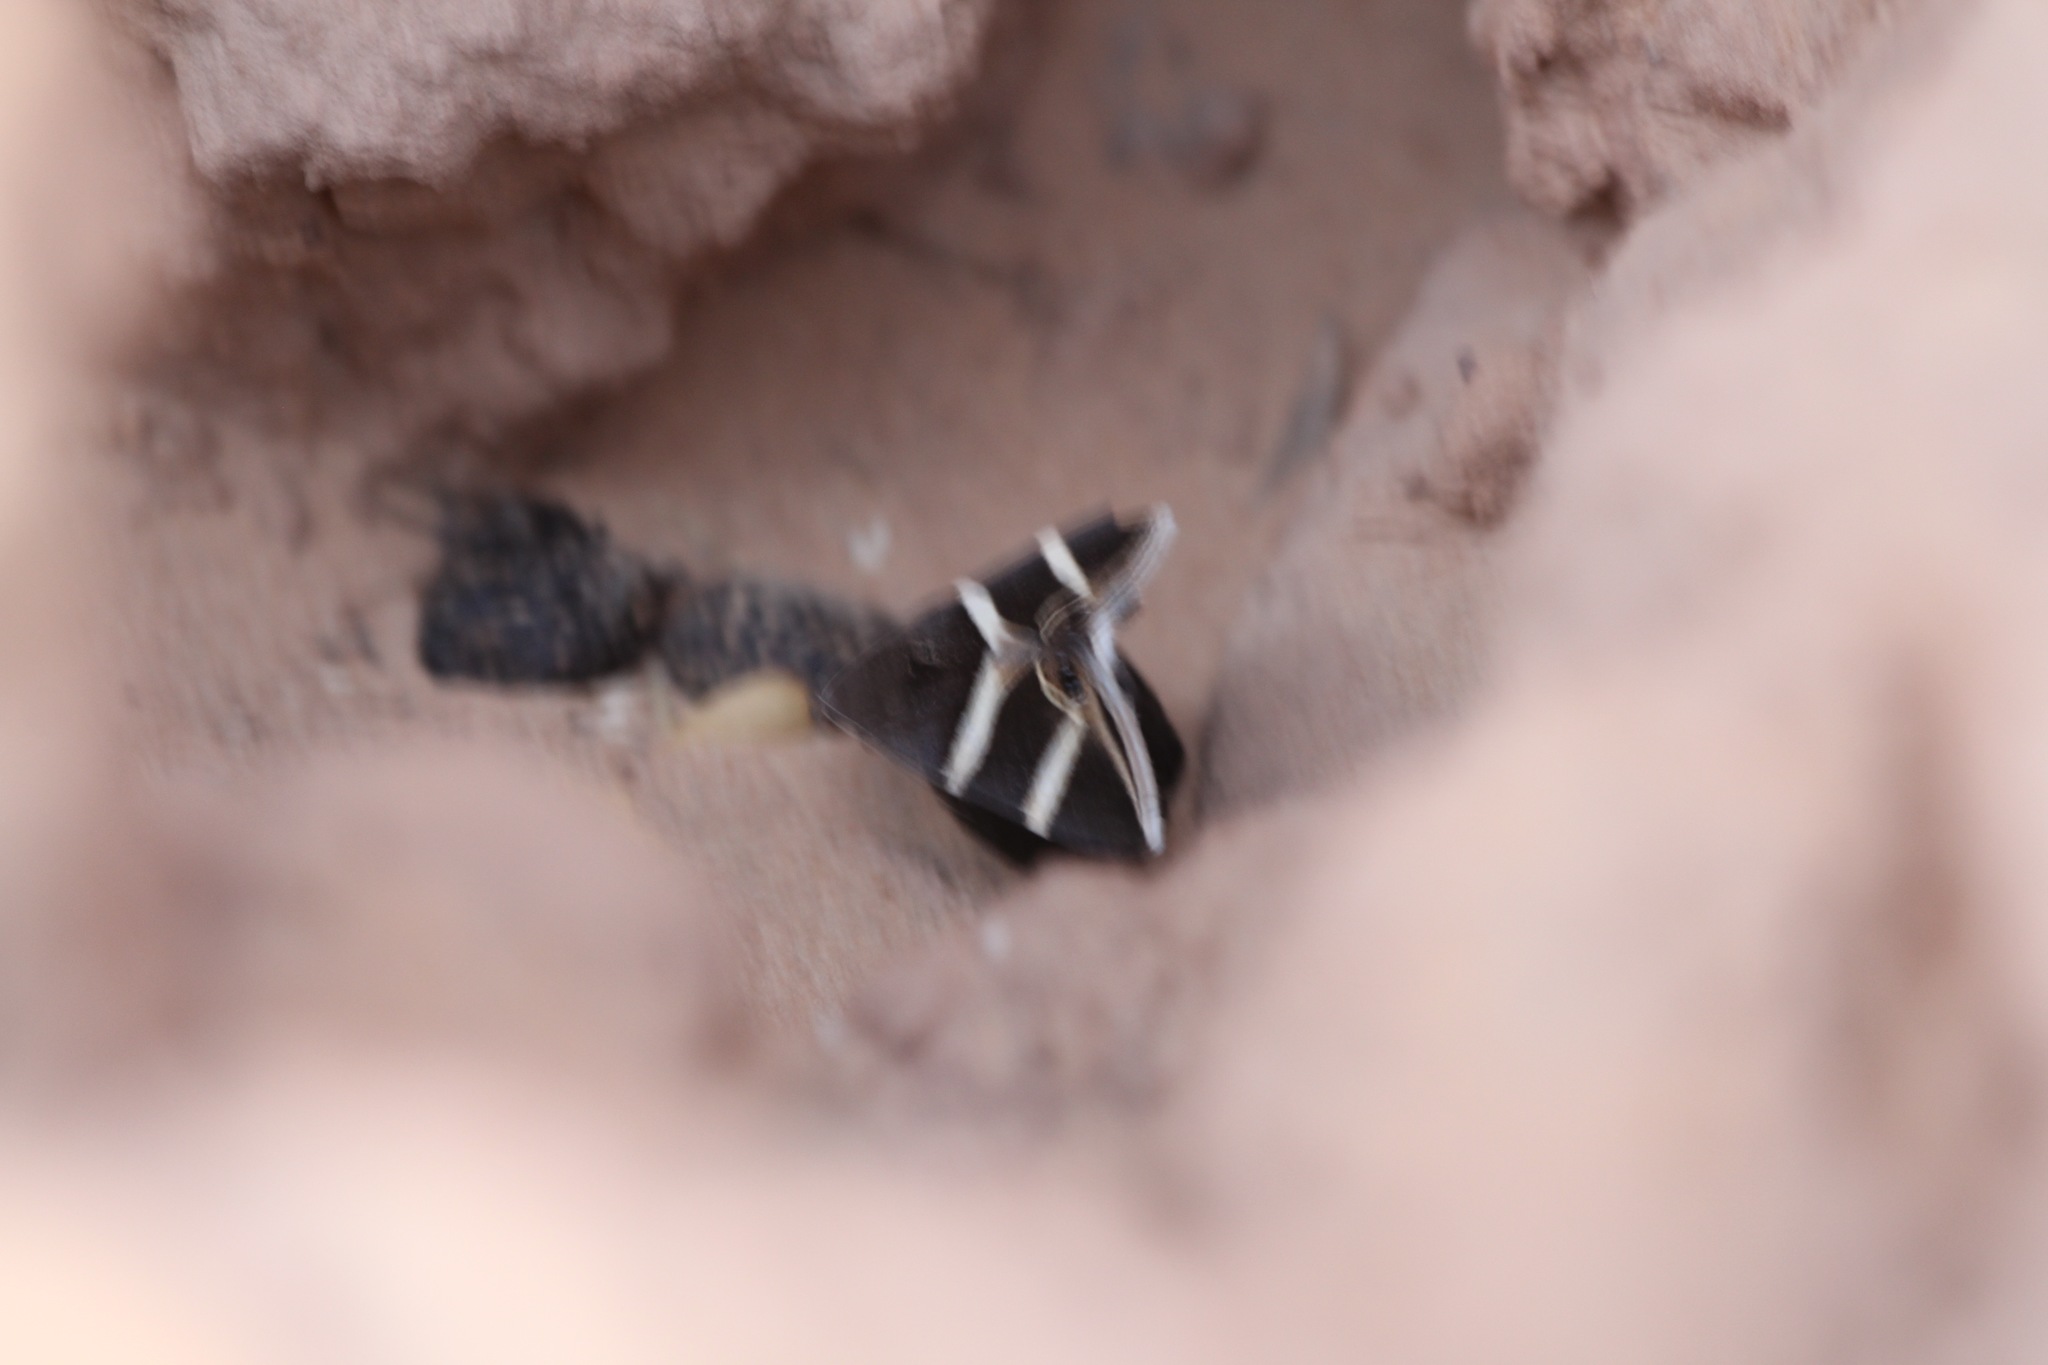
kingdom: Animalia
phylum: Arthropoda
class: Insecta
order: Lepidoptera
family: Erebidae
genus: Grammodes
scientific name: Grammodes oculicola
